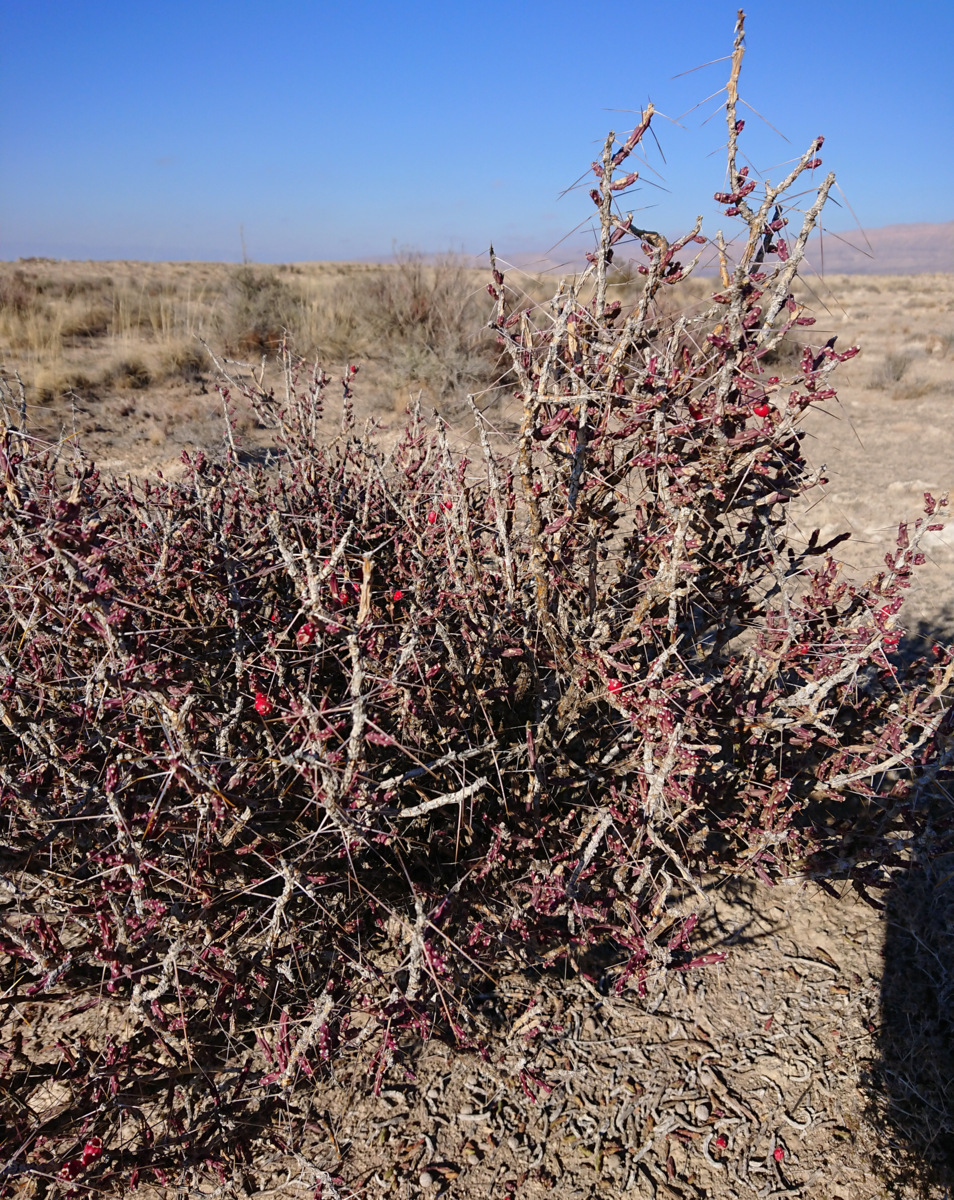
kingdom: Plantae
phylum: Tracheophyta
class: Magnoliopsida
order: Caryophyllales
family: Cactaceae
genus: Cylindropuntia
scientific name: Cylindropuntia leptocaulis
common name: Christmas cactus
